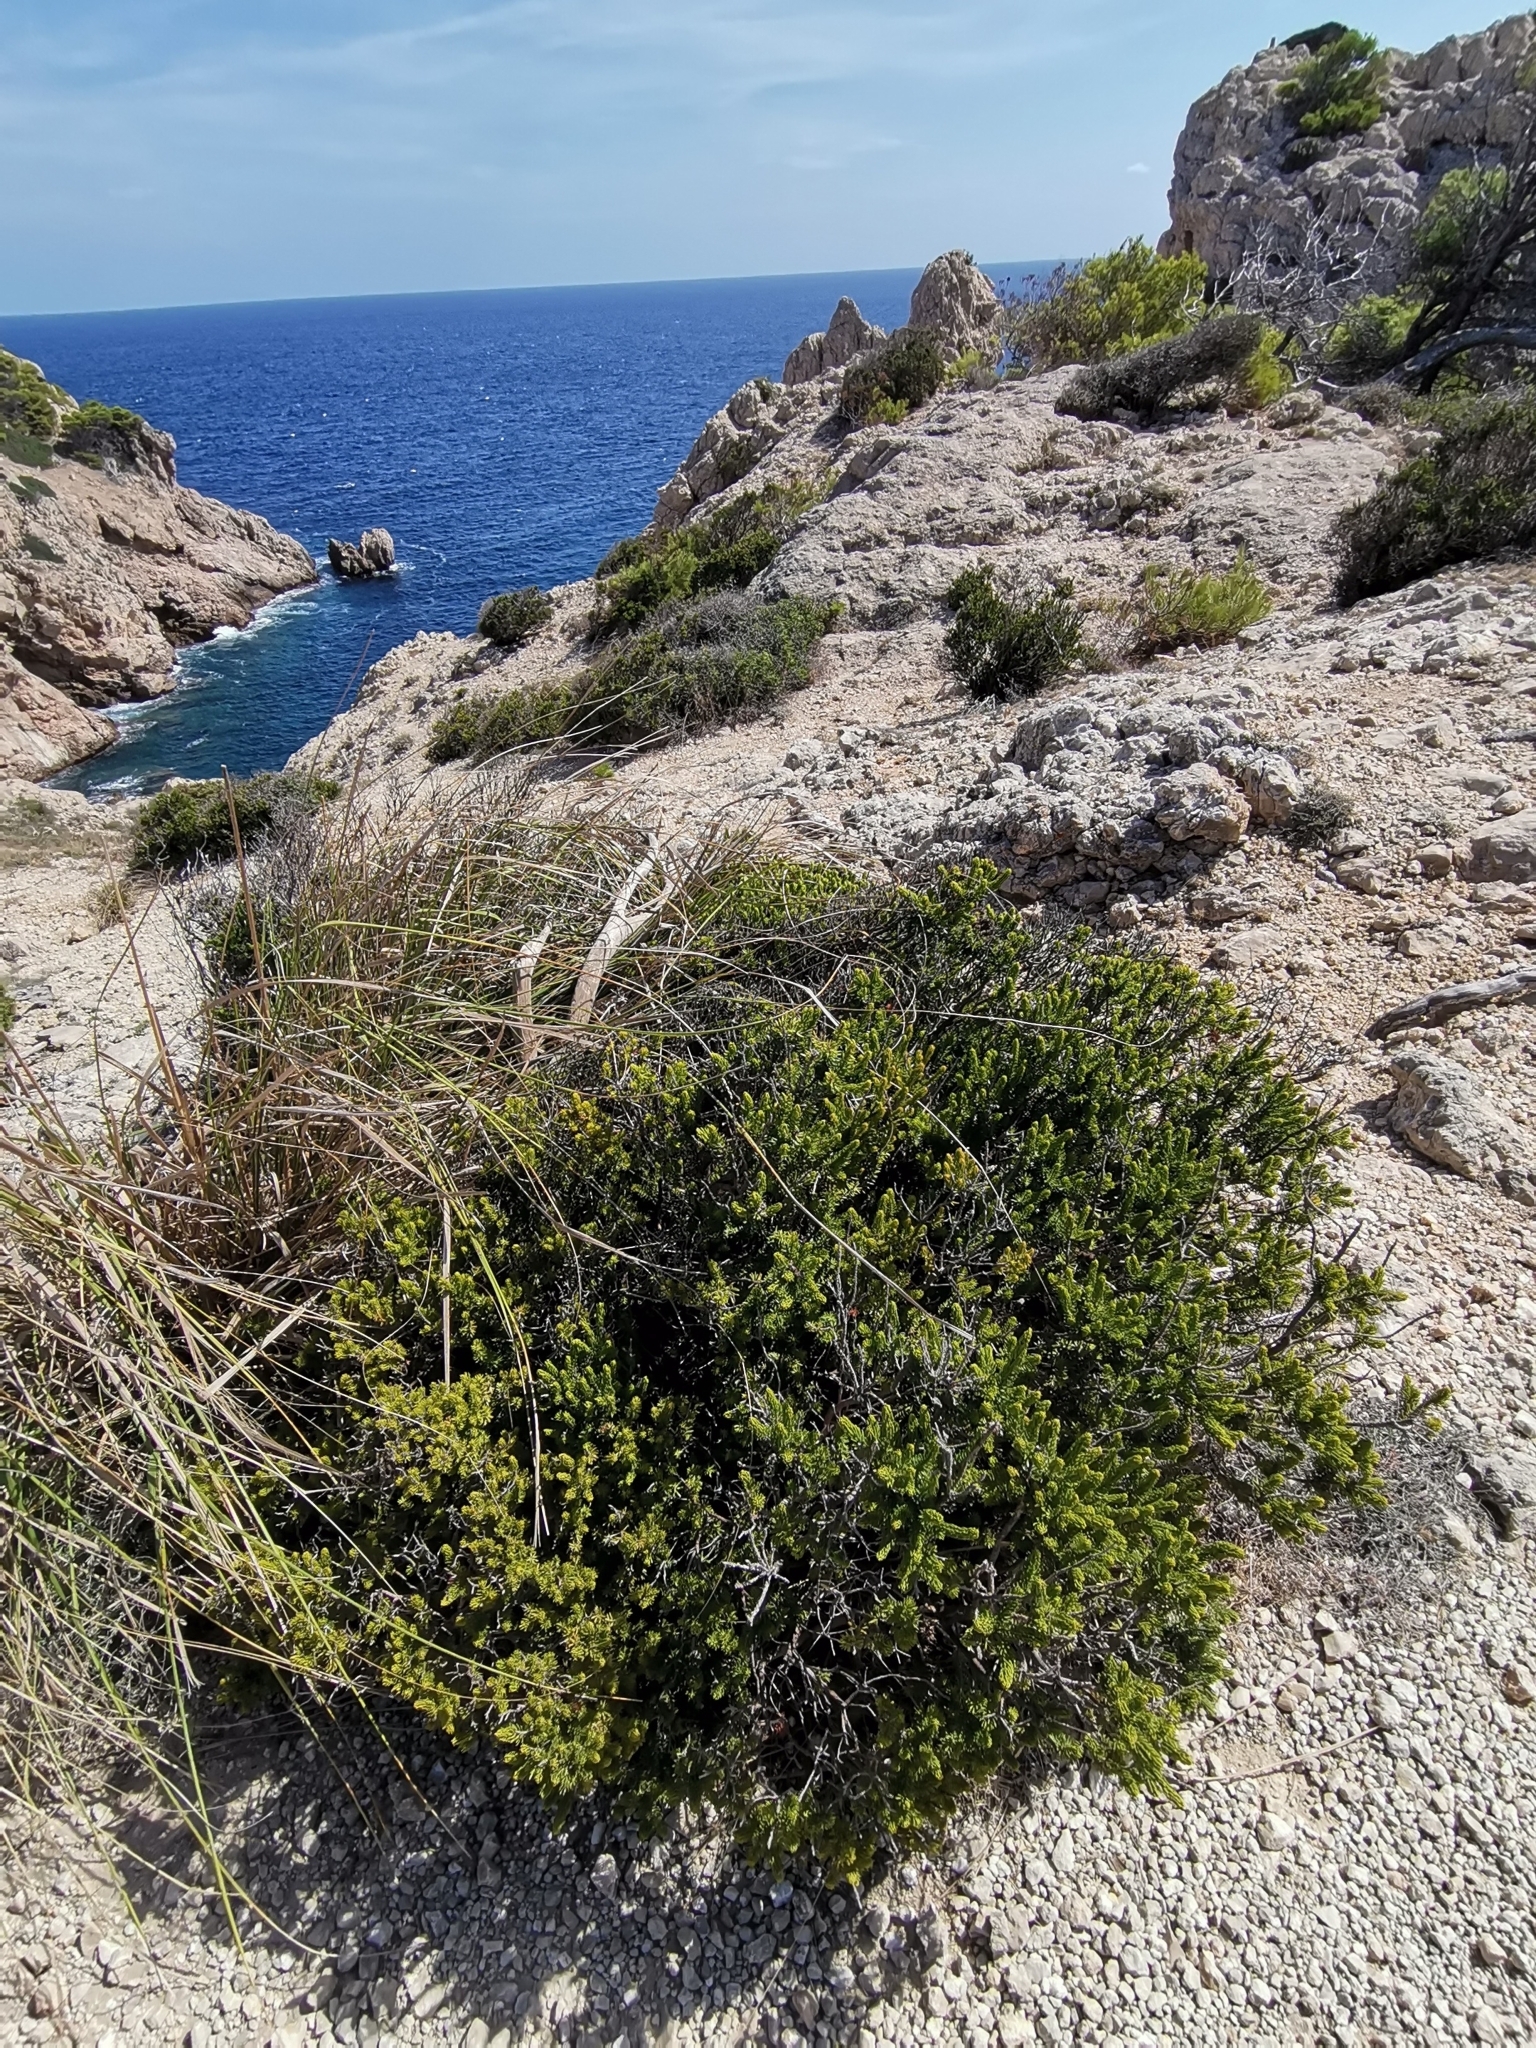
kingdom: Plantae
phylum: Tracheophyta
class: Magnoliopsida
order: Ericales
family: Ericaceae
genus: Erica
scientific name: Erica multiflora
